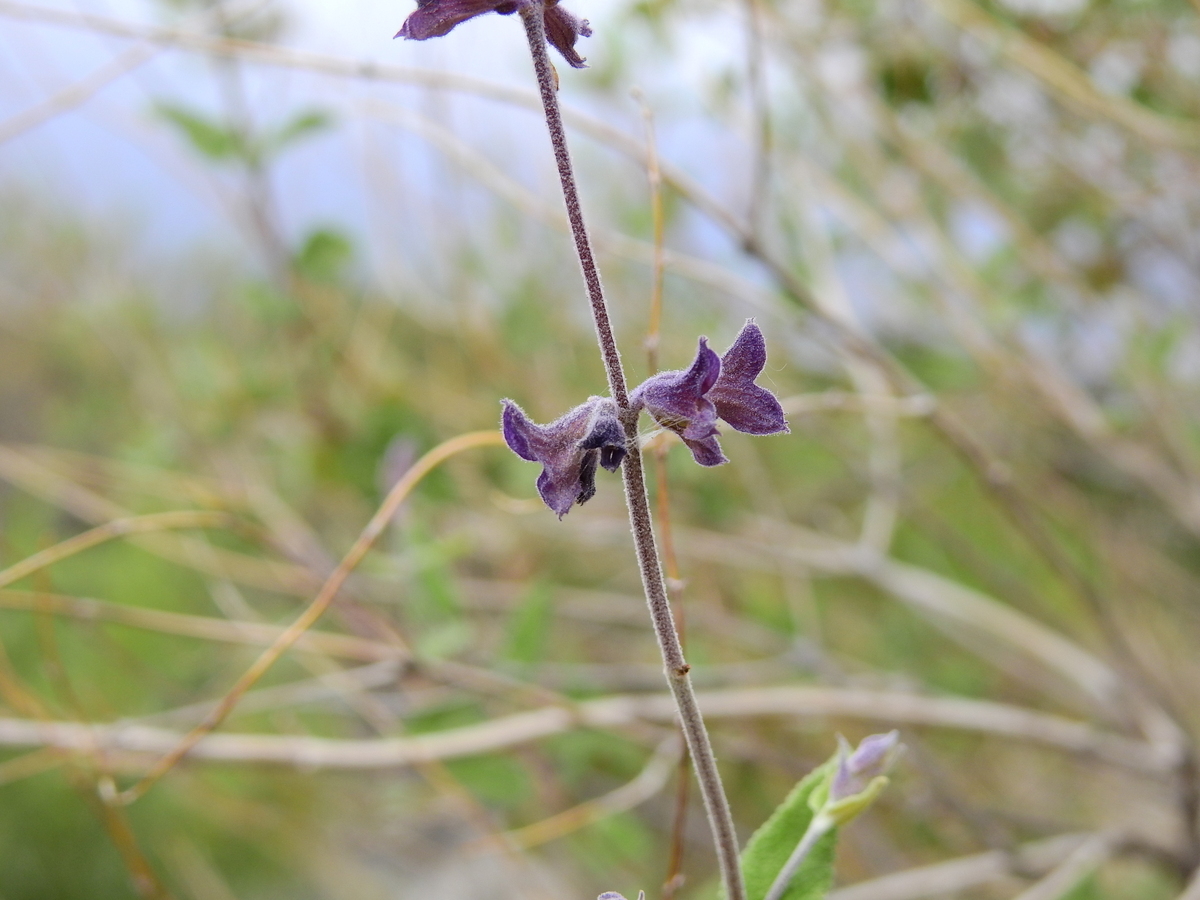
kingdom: Plantae
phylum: Tracheophyta
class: Magnoliopsida
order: Lamiales
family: Lamiaceae
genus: Salvia
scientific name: Salvia cuspidata
